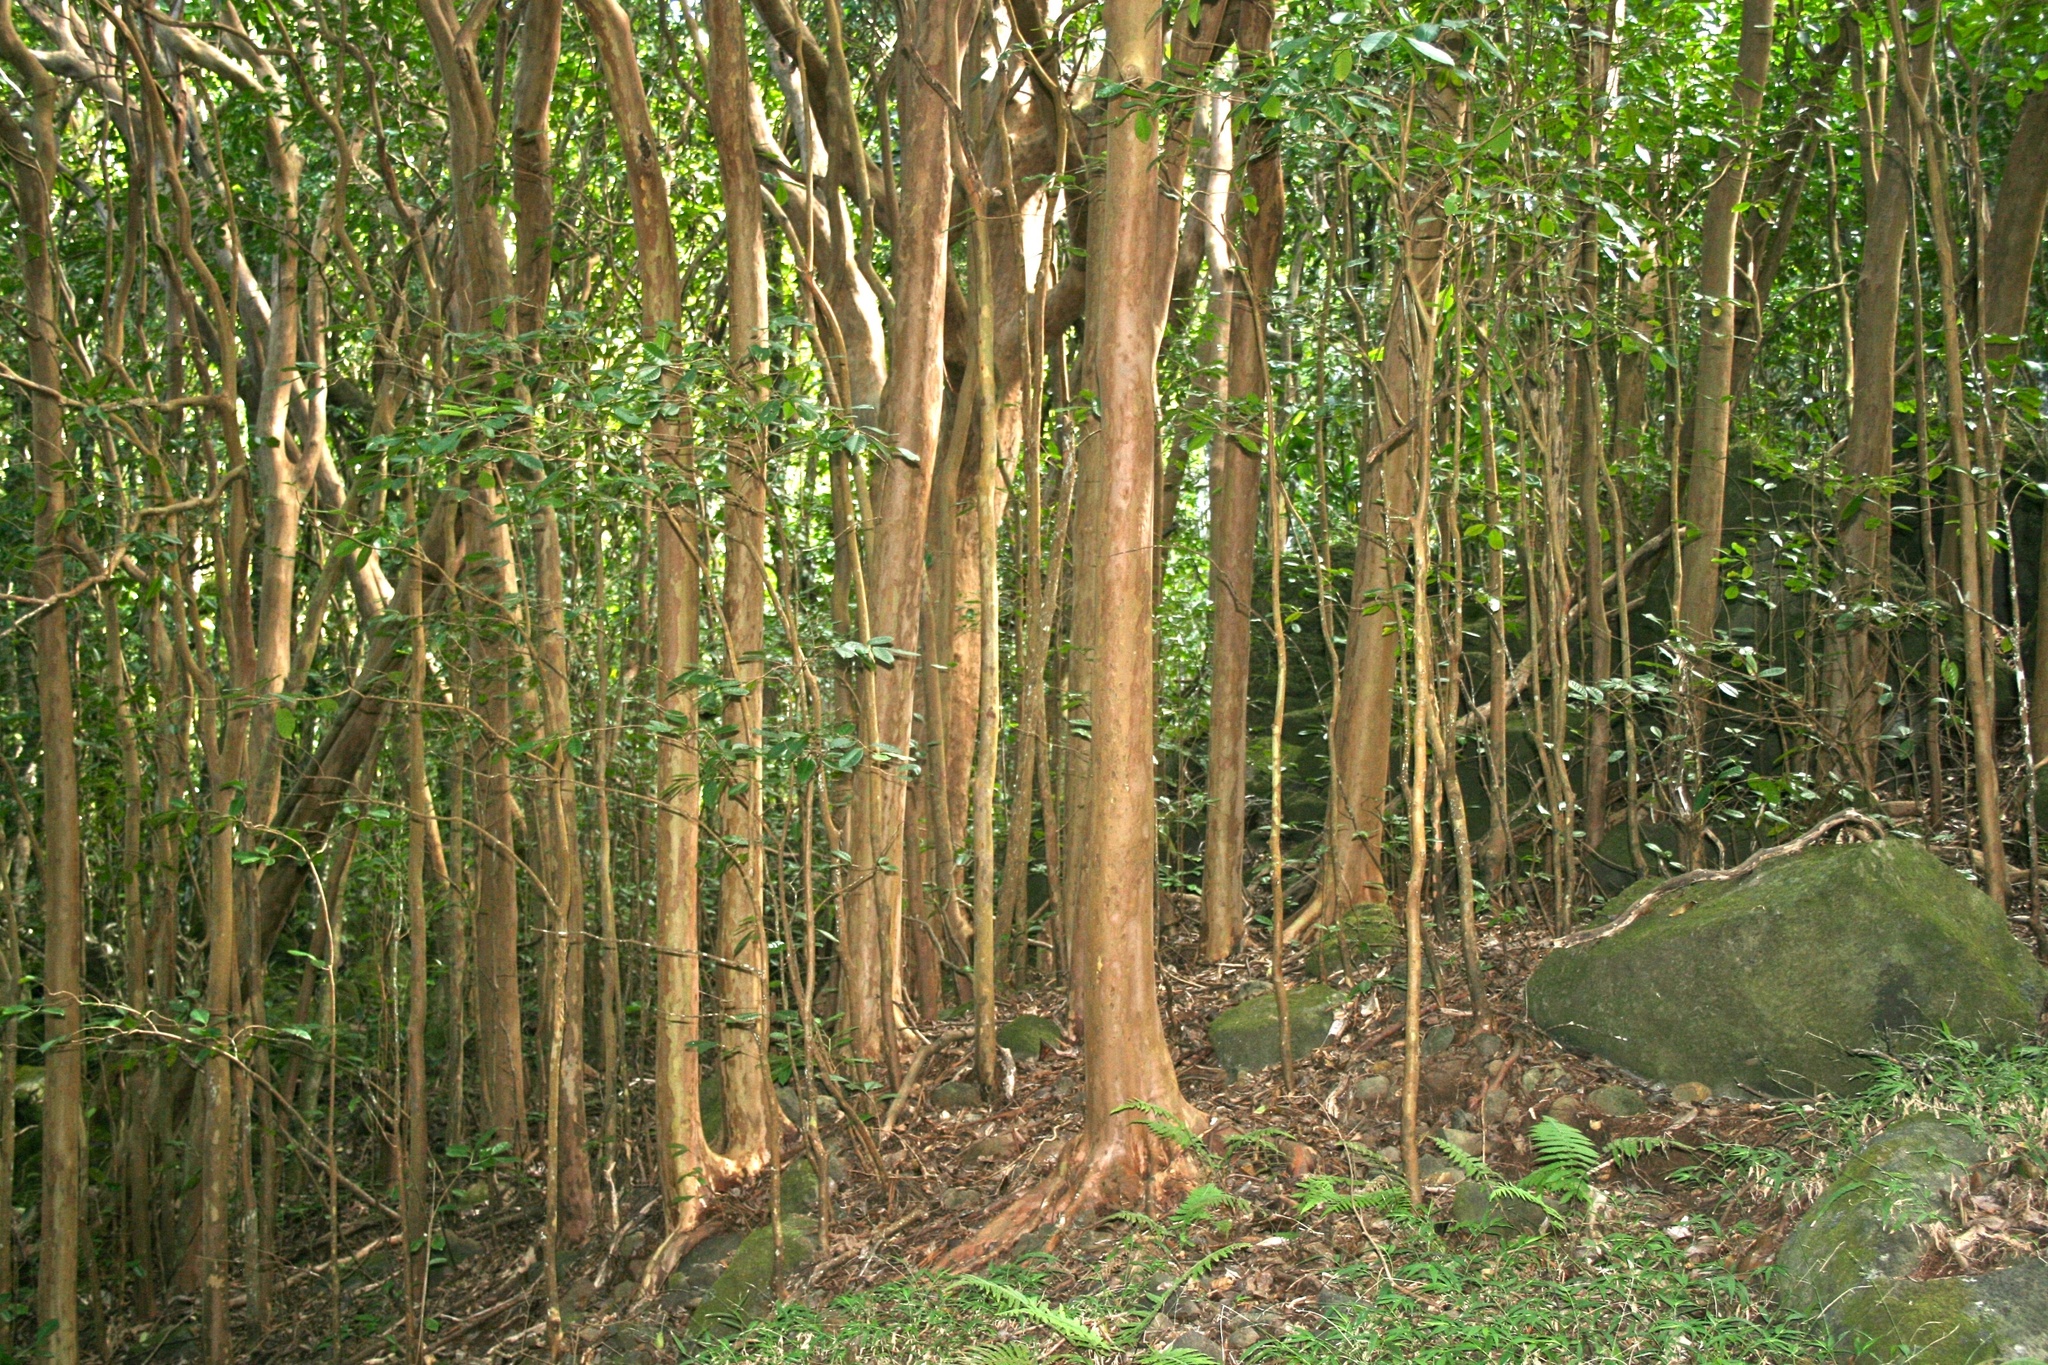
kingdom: Plantae
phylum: Tracheophyta
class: Magnoliopsida
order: Myrtales
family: Myrtaceae
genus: Psidium
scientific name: Psidium cattleianum
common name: Strawberry guava
